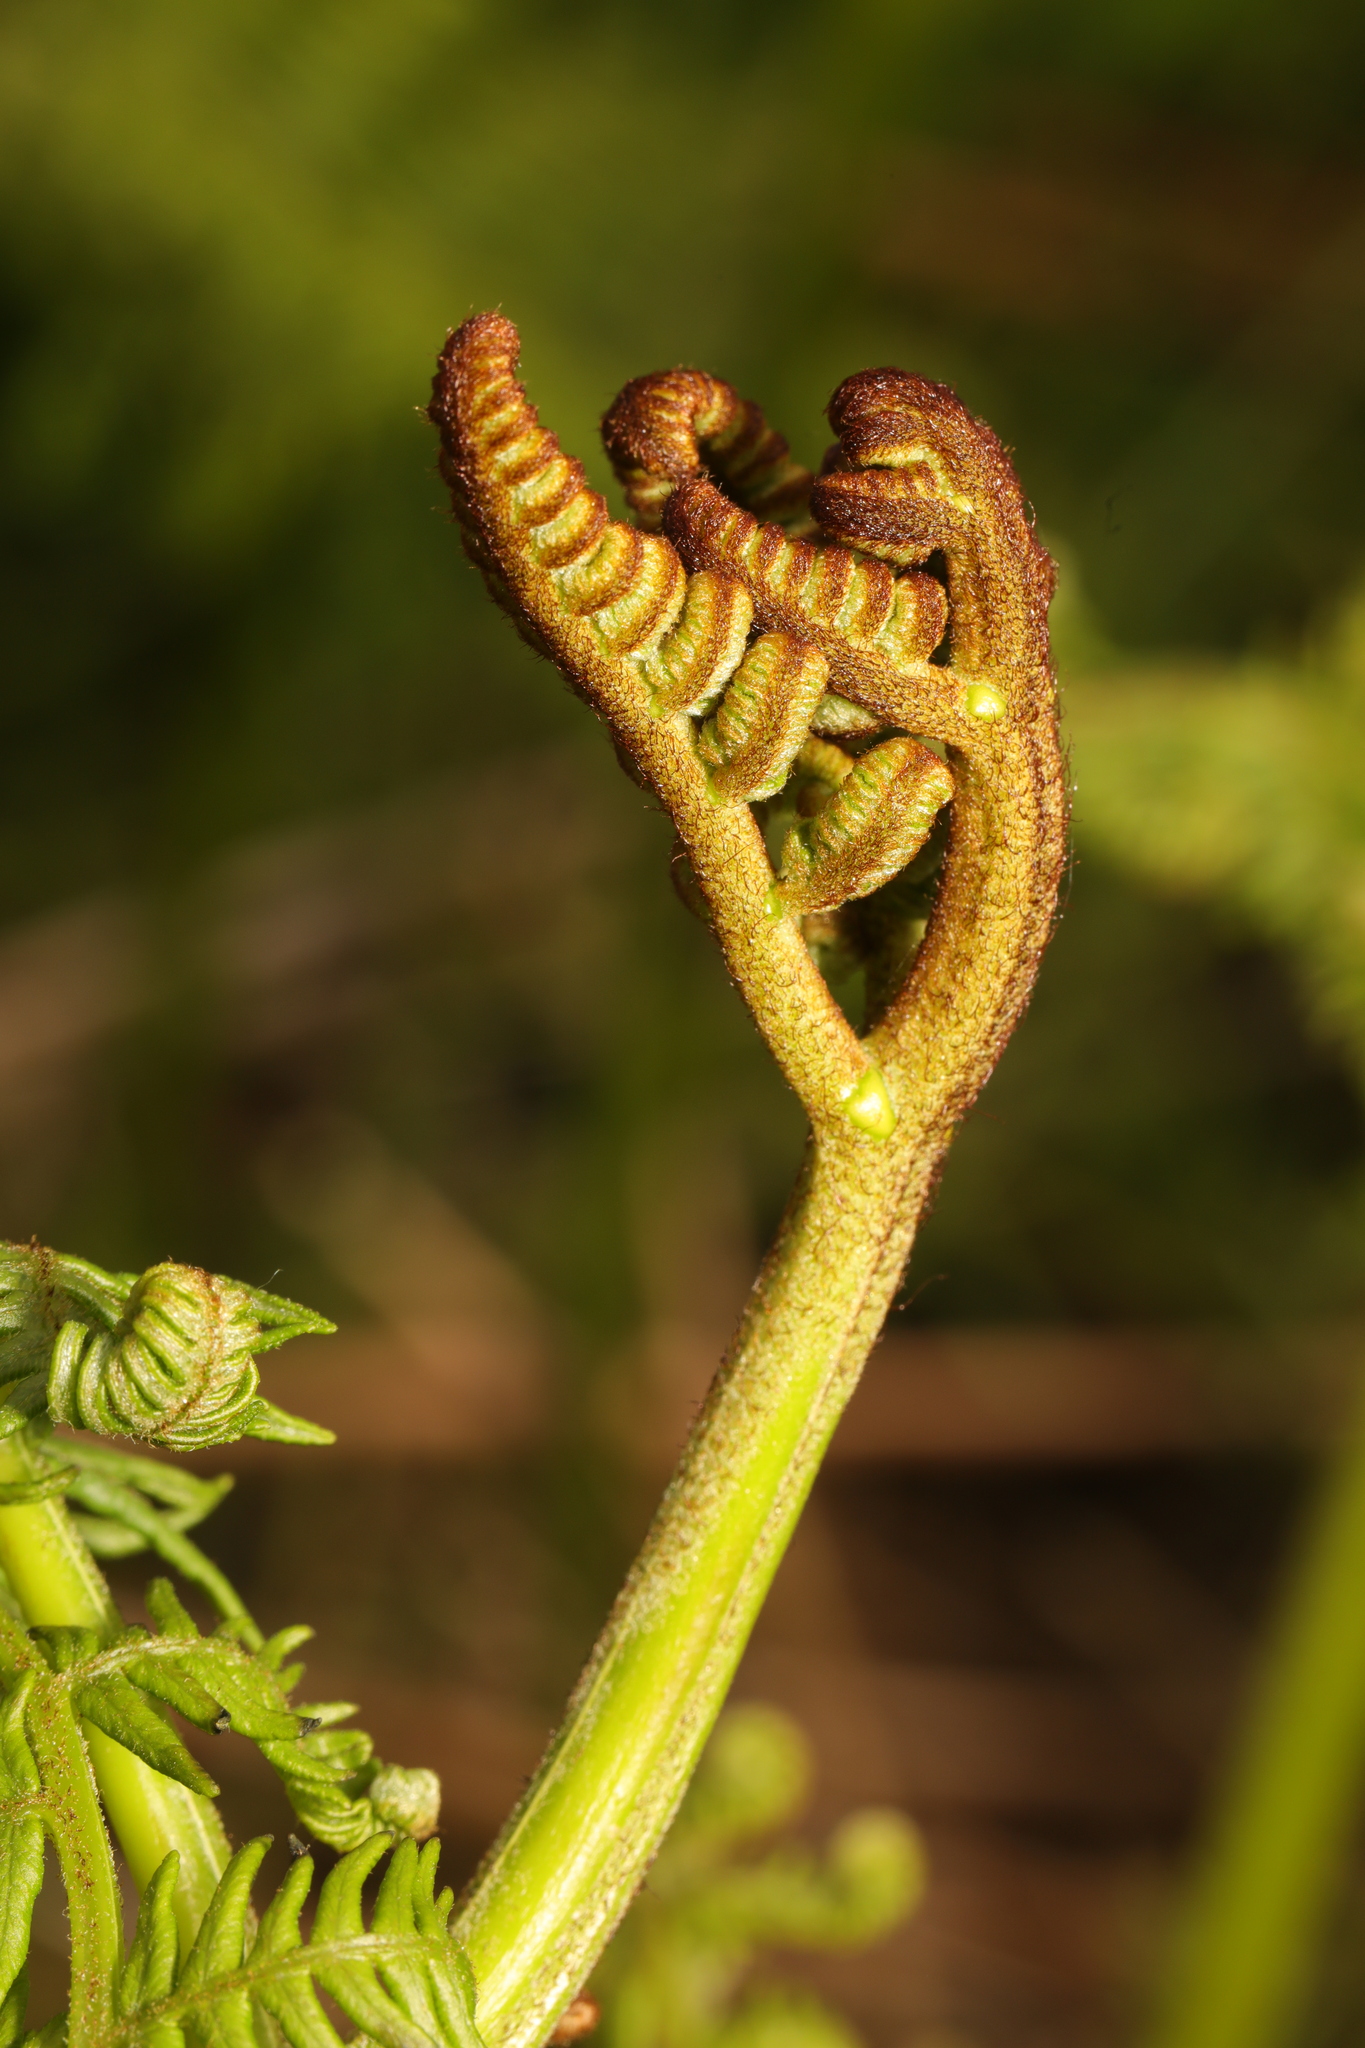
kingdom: Plantae
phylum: Tracheophyta
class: Polypodiopsida
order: Polypodiales
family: Dennstaedtiaceae
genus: Pteridium
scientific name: Pteridium aquilinum
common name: Bracken
